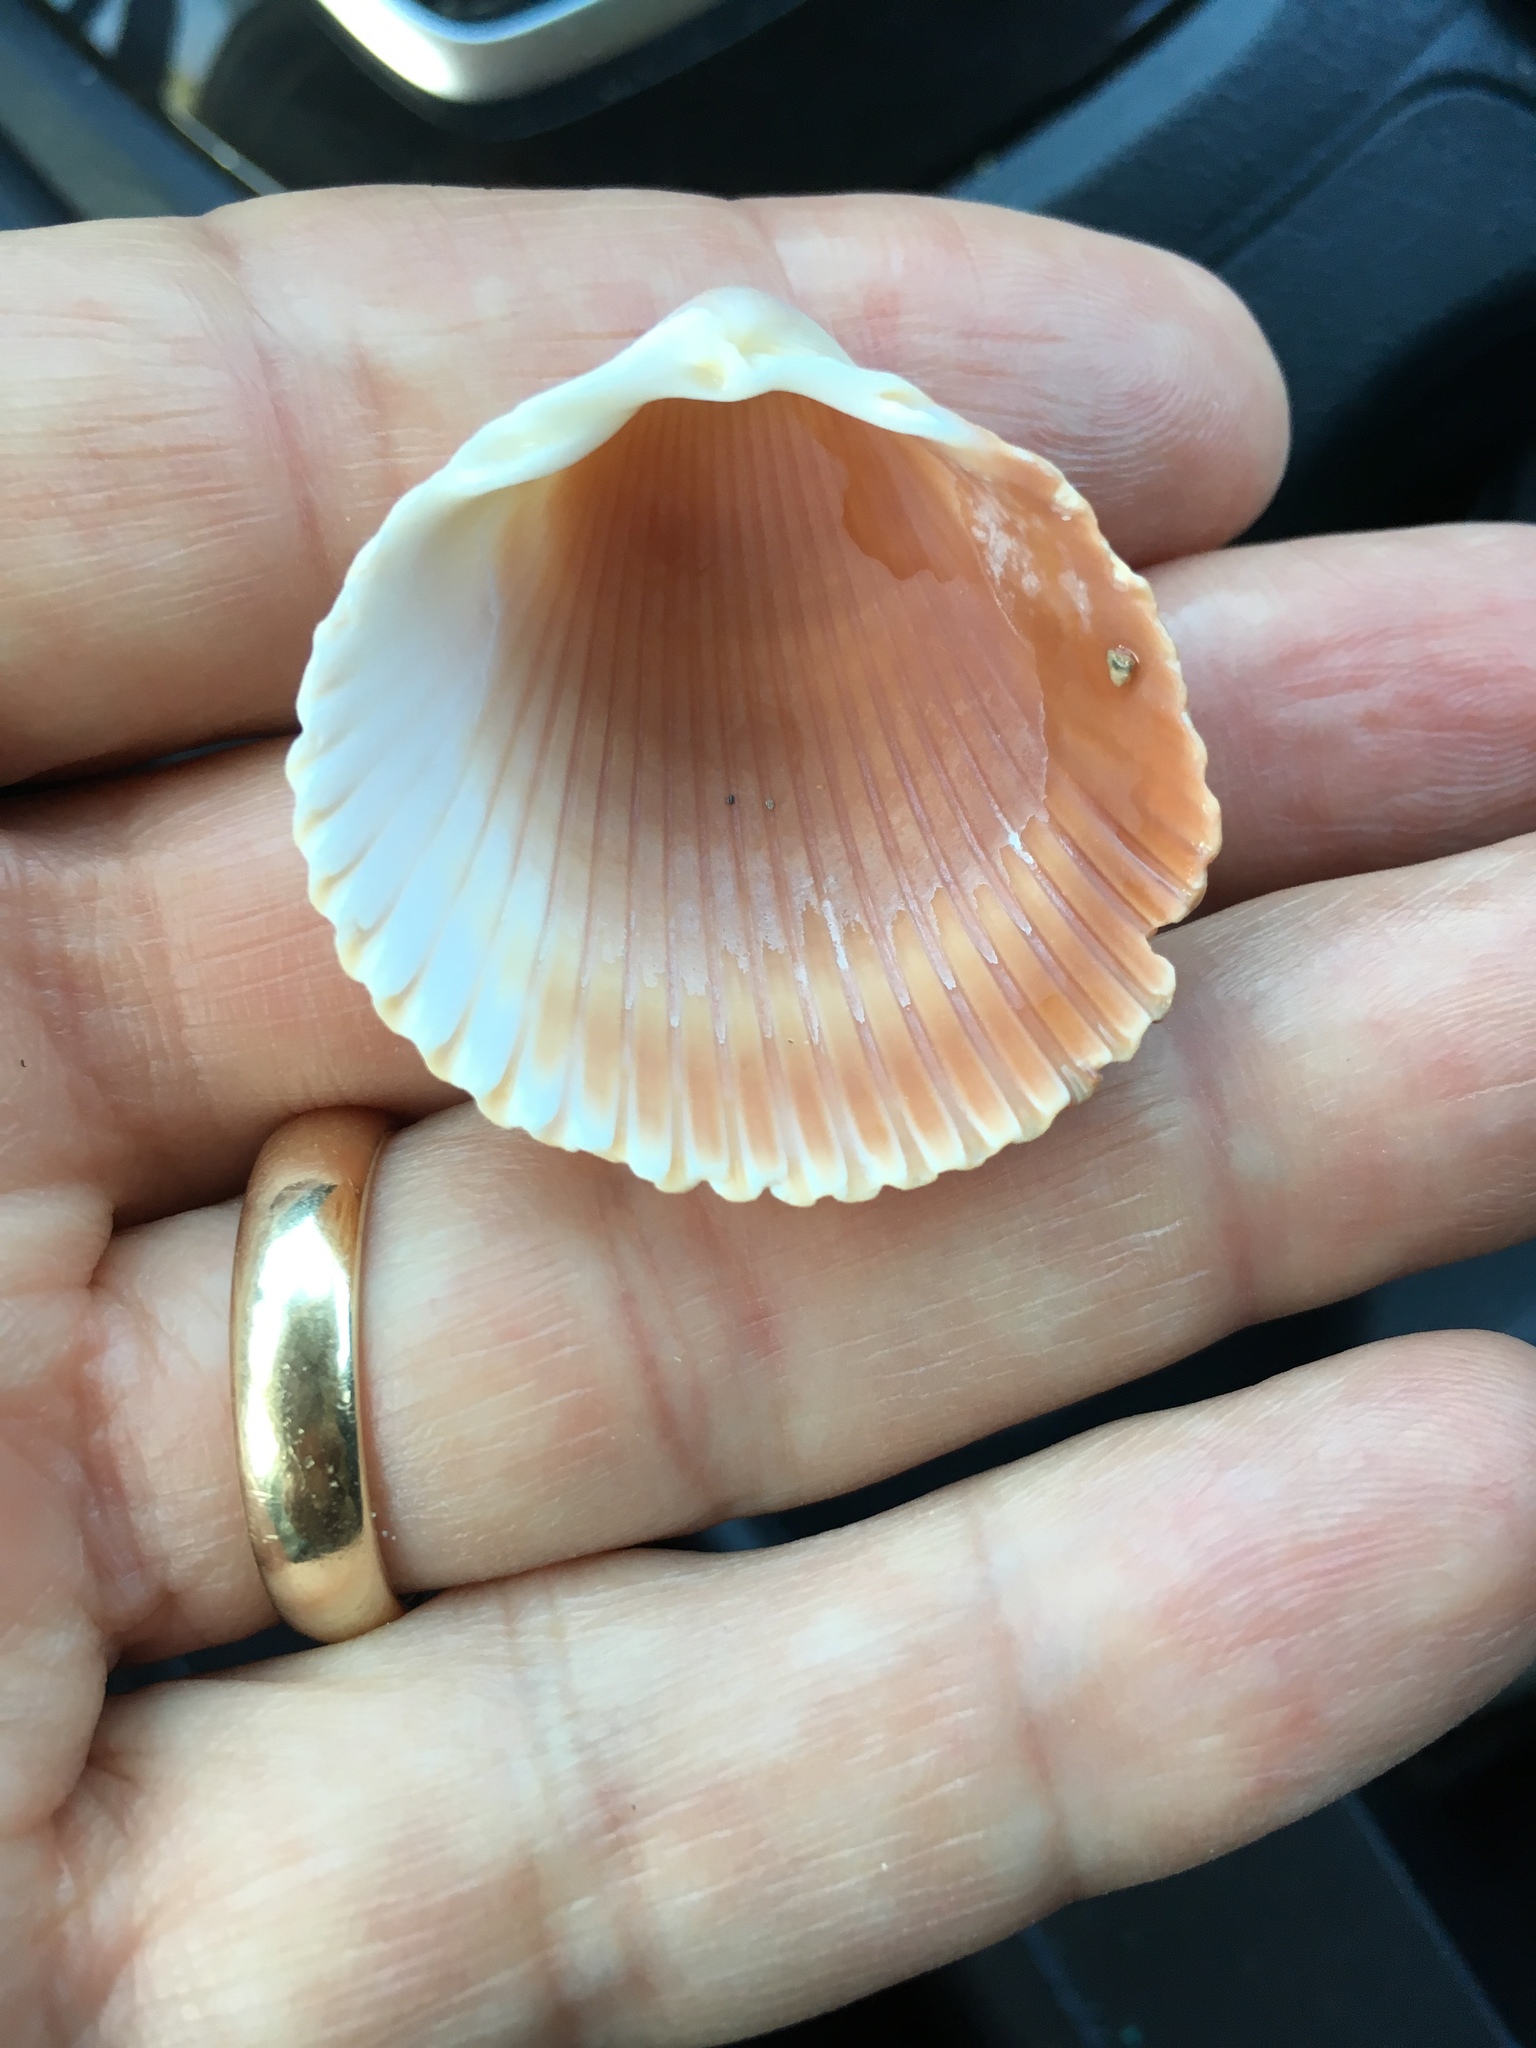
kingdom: Animalia
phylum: Mollusca
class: Bivalvia
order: Cardiida
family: Cardiidae
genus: Dinocardium
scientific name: Dinocardium robustum
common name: Atlantic giant cockle
